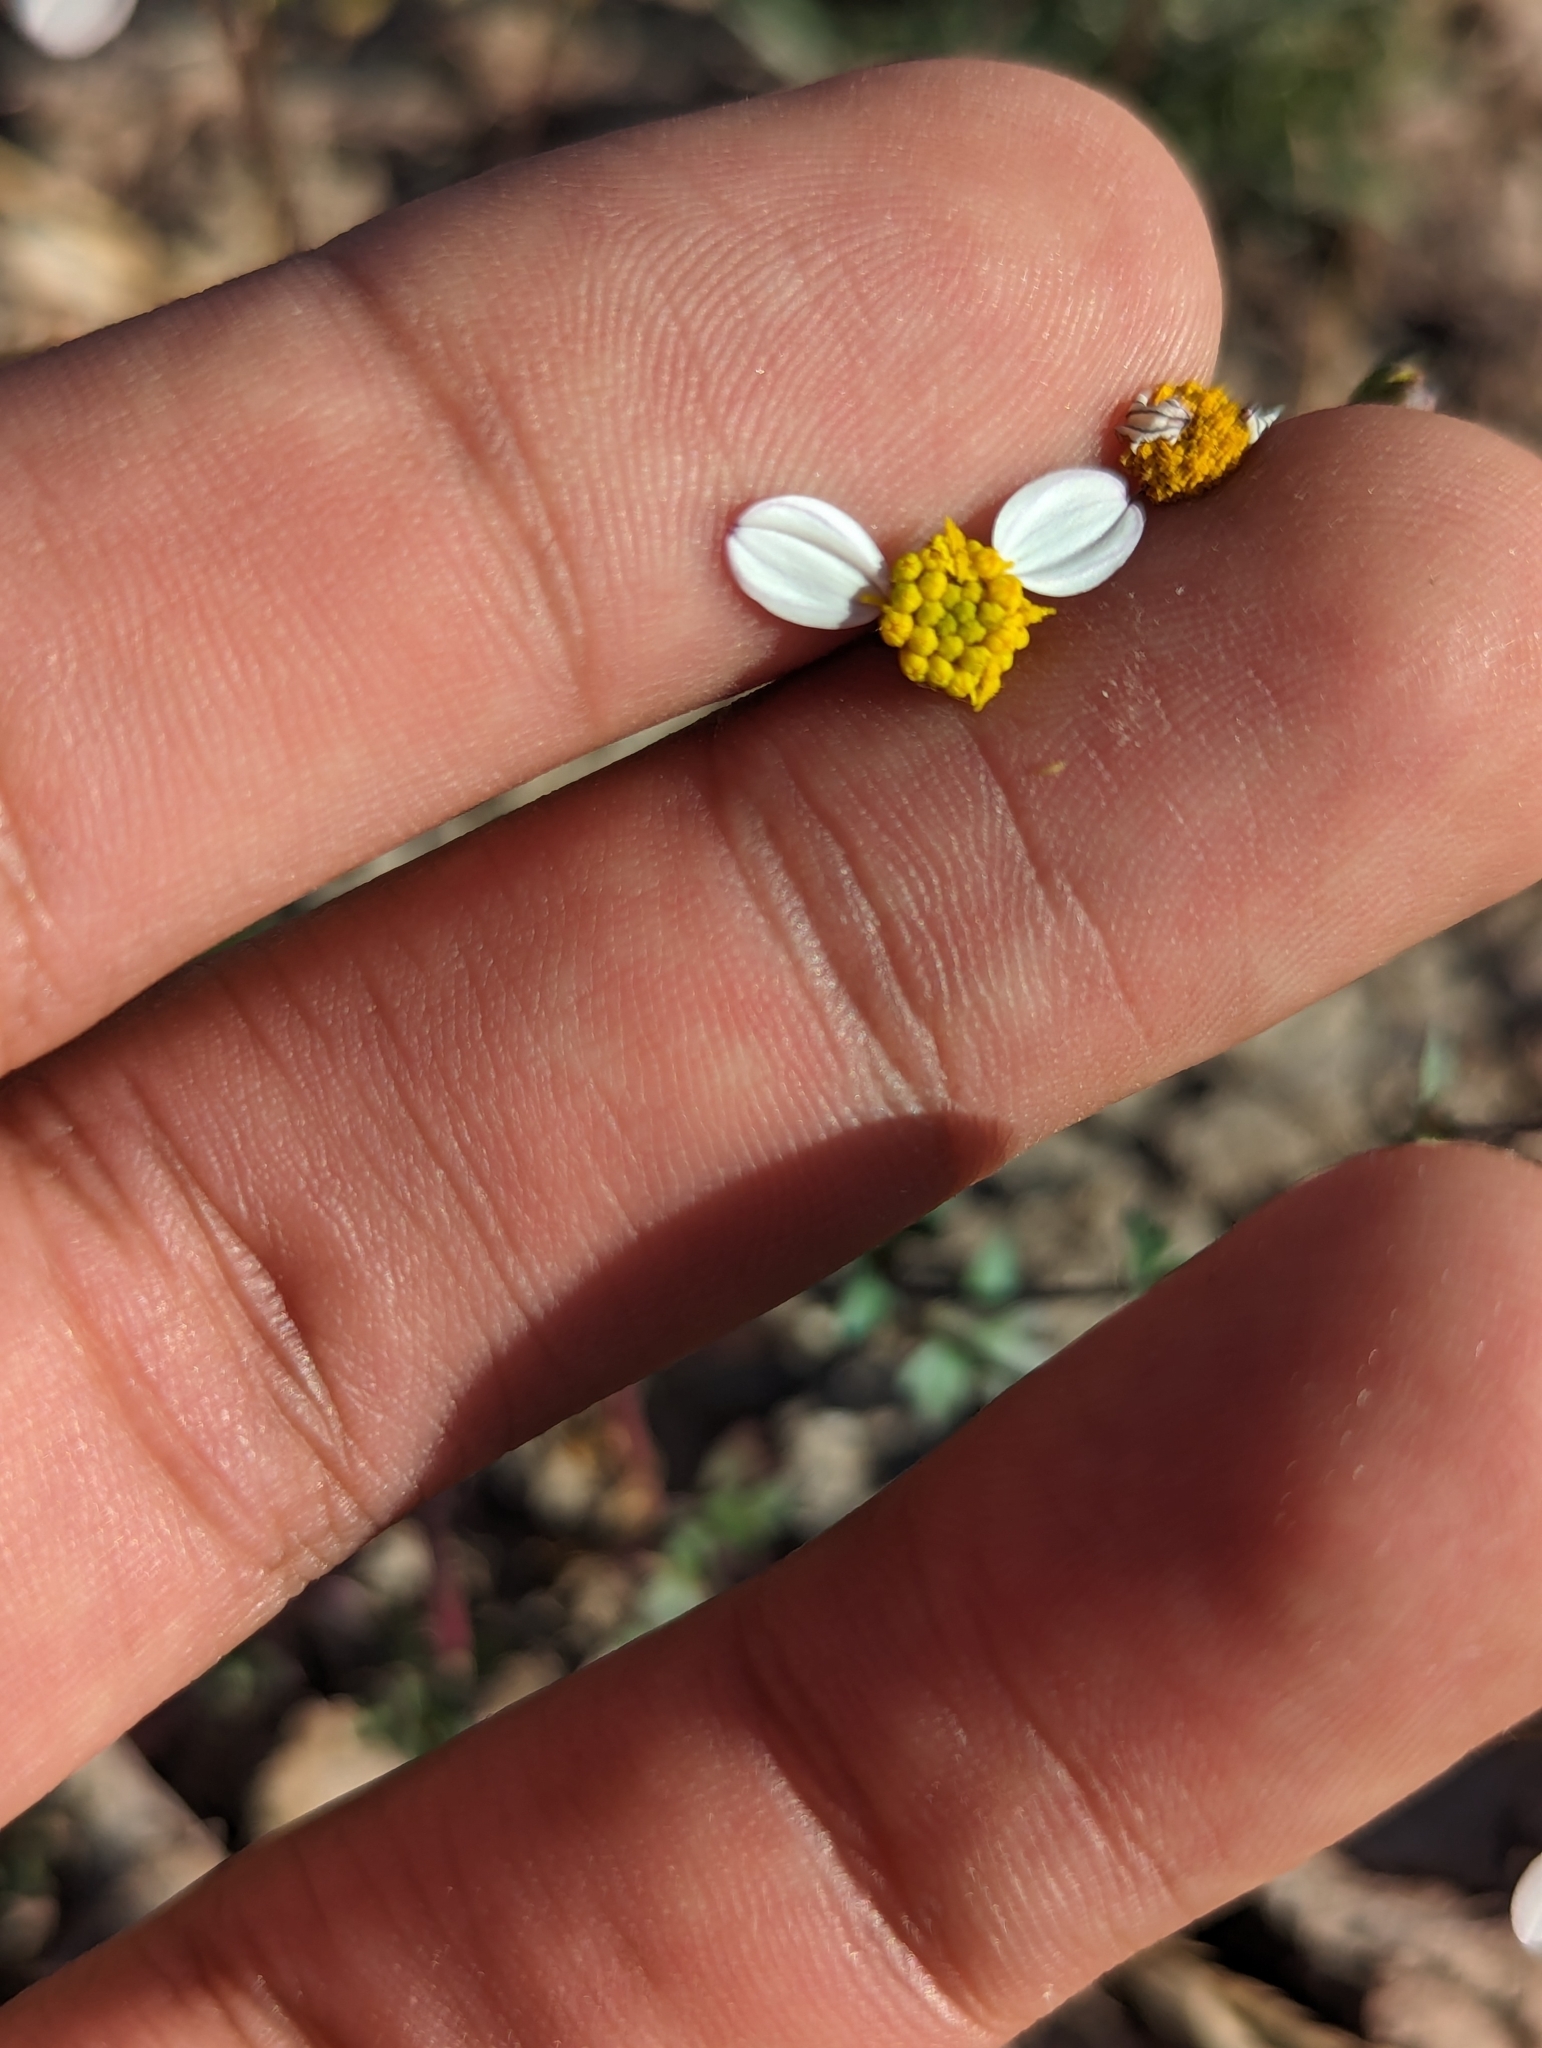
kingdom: Plantae
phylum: Tracheophyta
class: Magnoliopsida
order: Asterales
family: Asteraceae
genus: Coreocarpus
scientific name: Coreocarpus parthenioides
